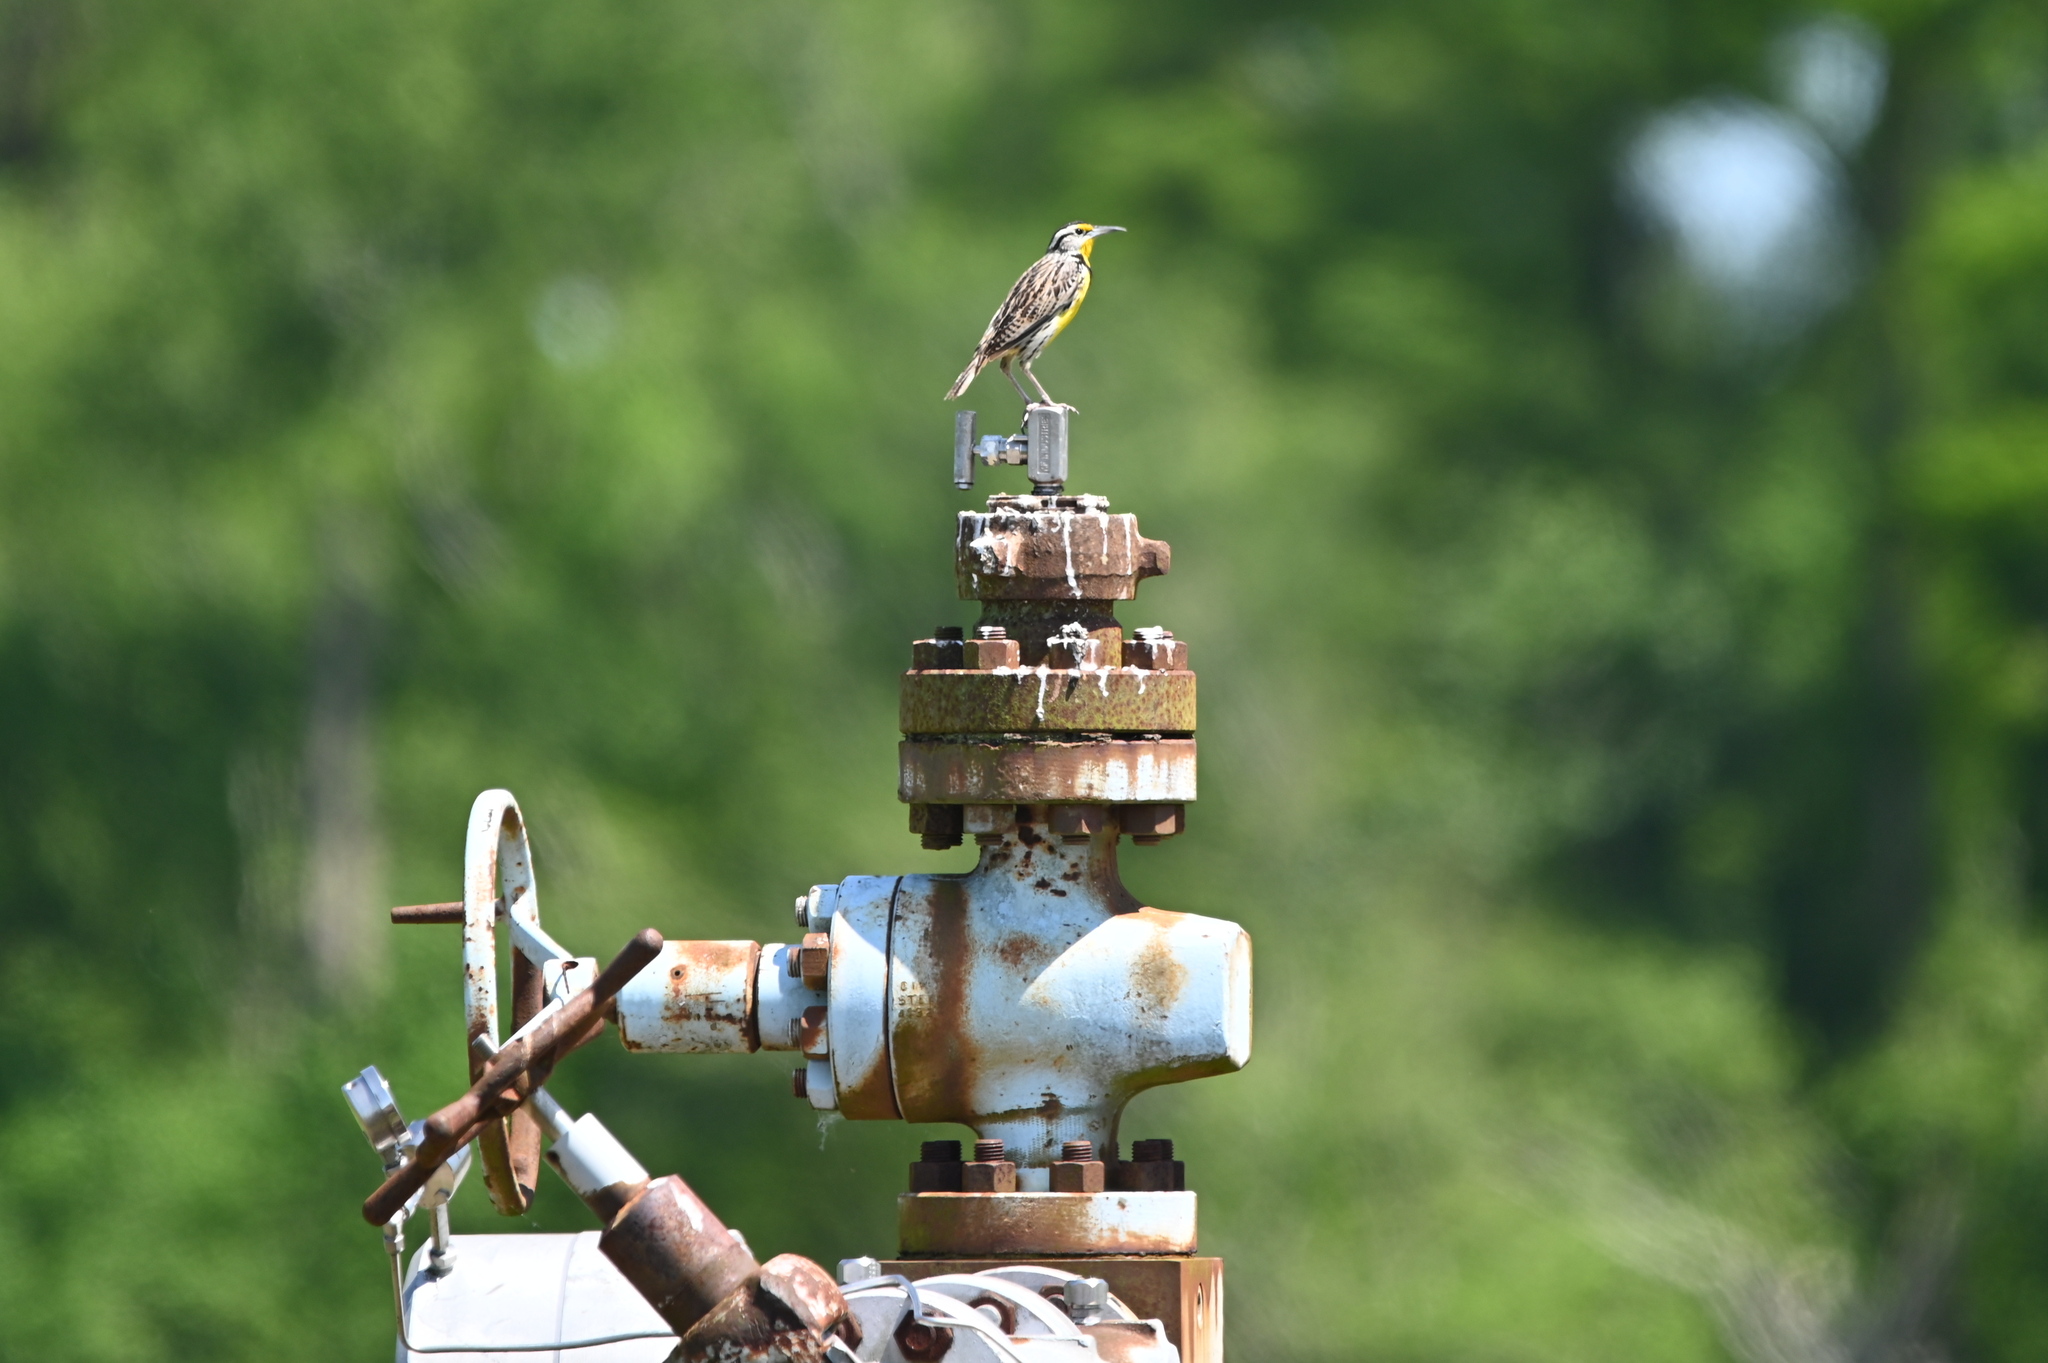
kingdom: Animalia
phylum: Chordata
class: Aves
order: Passeriformes
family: Icteridae
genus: Sturnella
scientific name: Sturnella magna
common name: Eastern meadowlark
